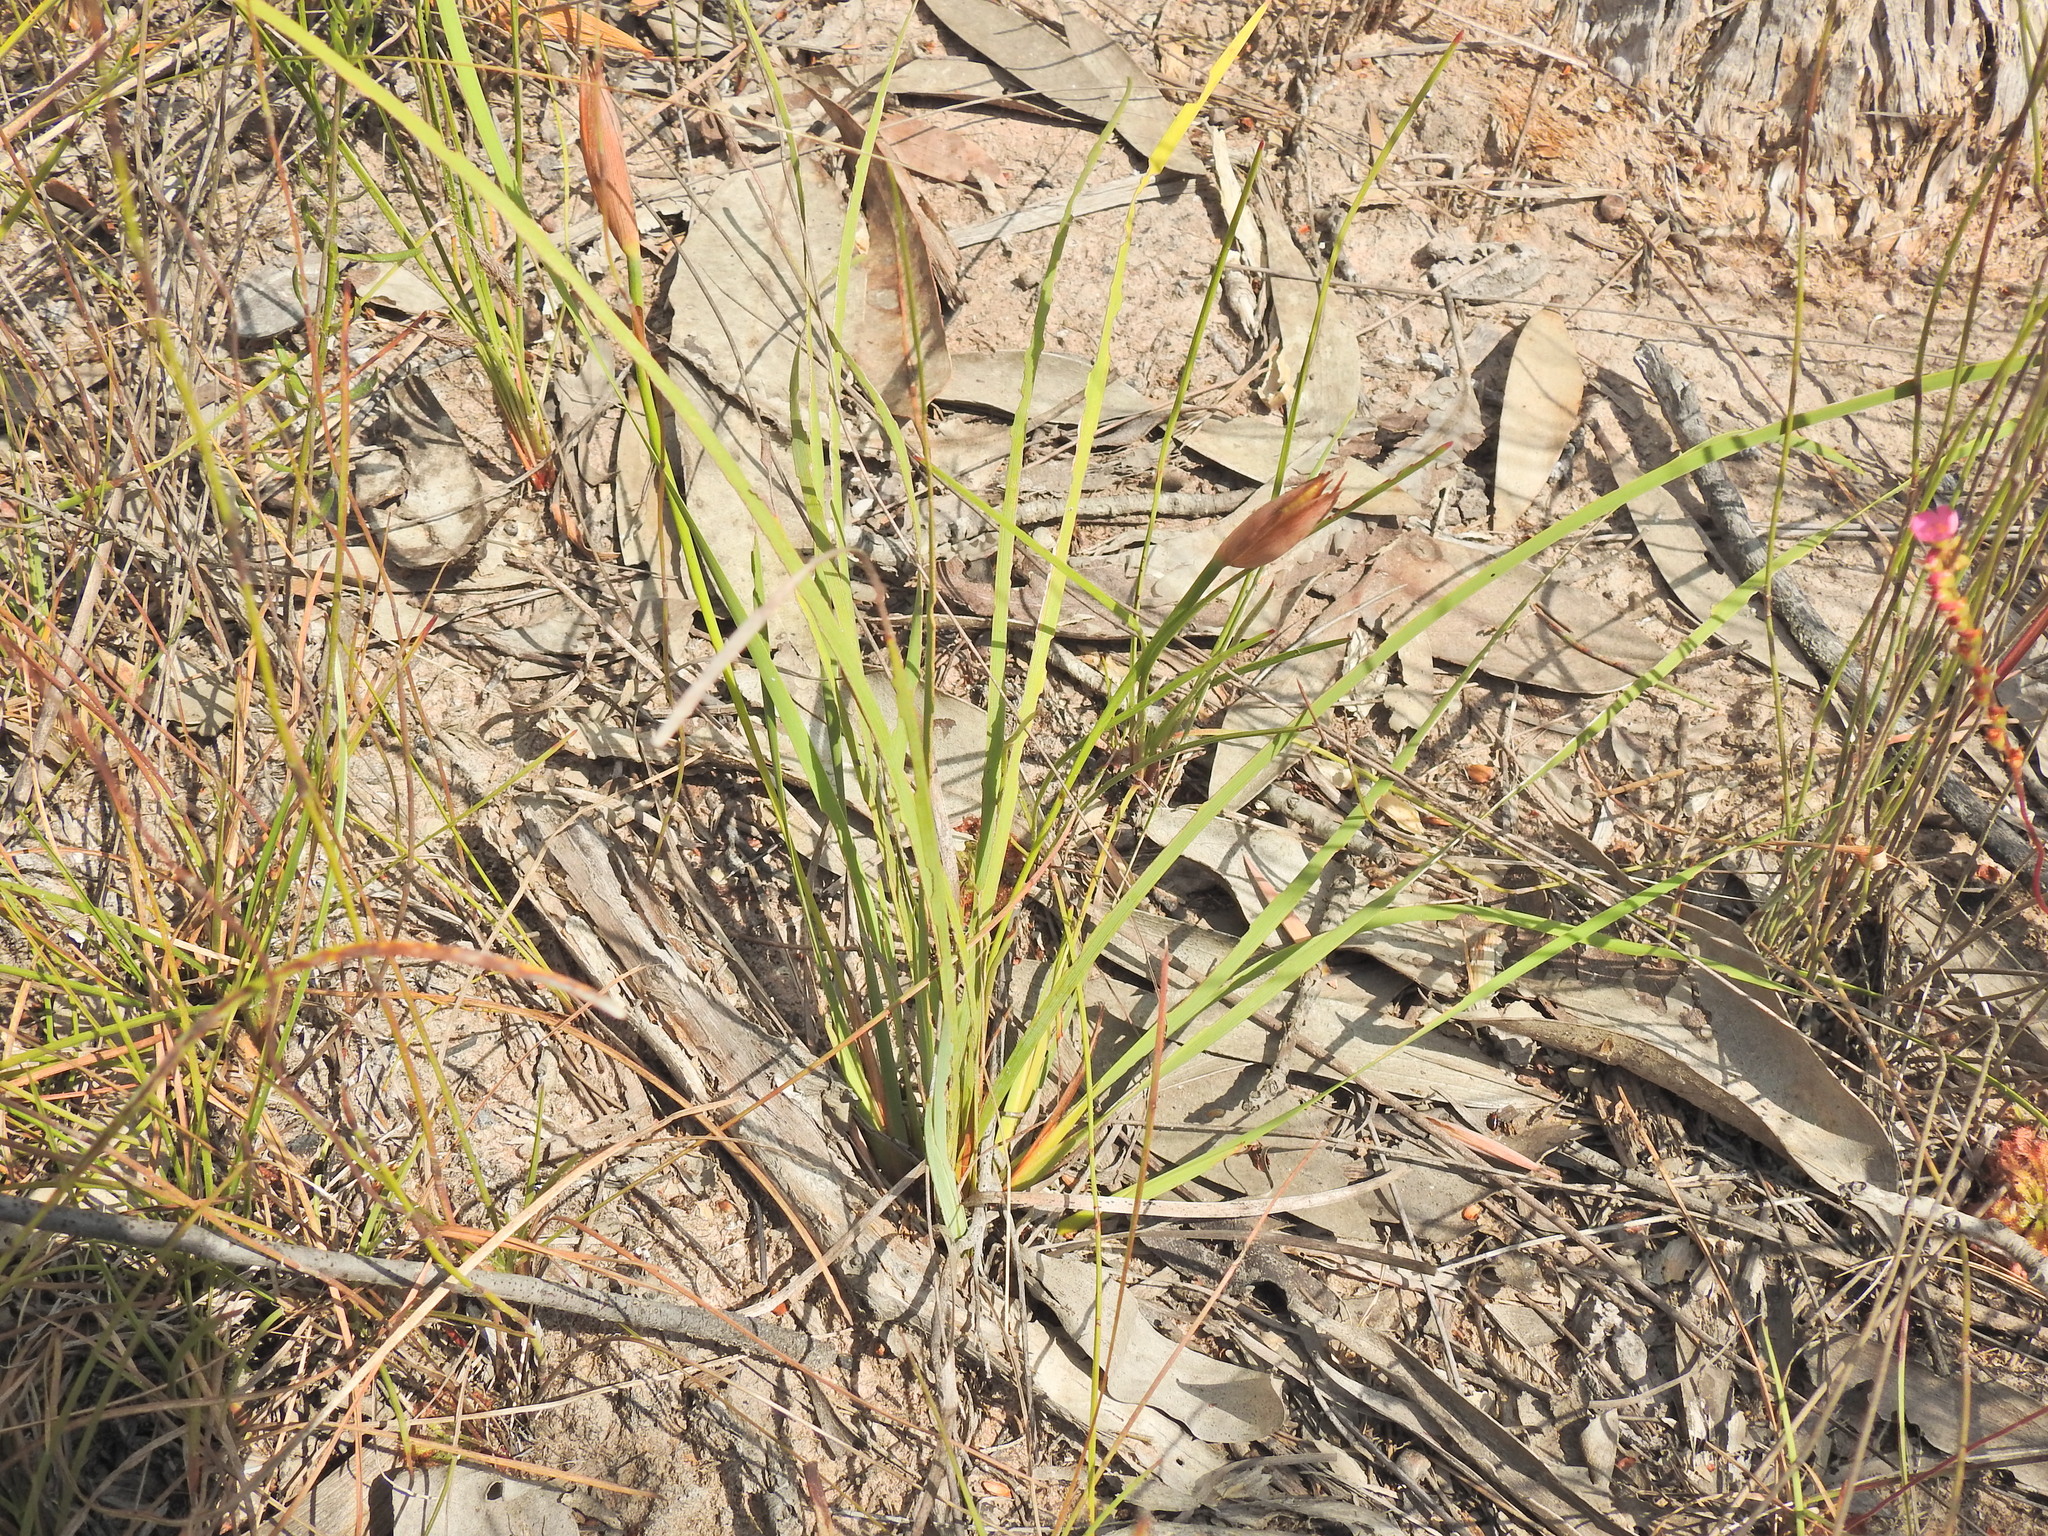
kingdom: Plantae
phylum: Tracheophyta
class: Liliopsida
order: Asparagales
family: Iridaceae
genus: Patersonia
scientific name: Patersonia fragilis
